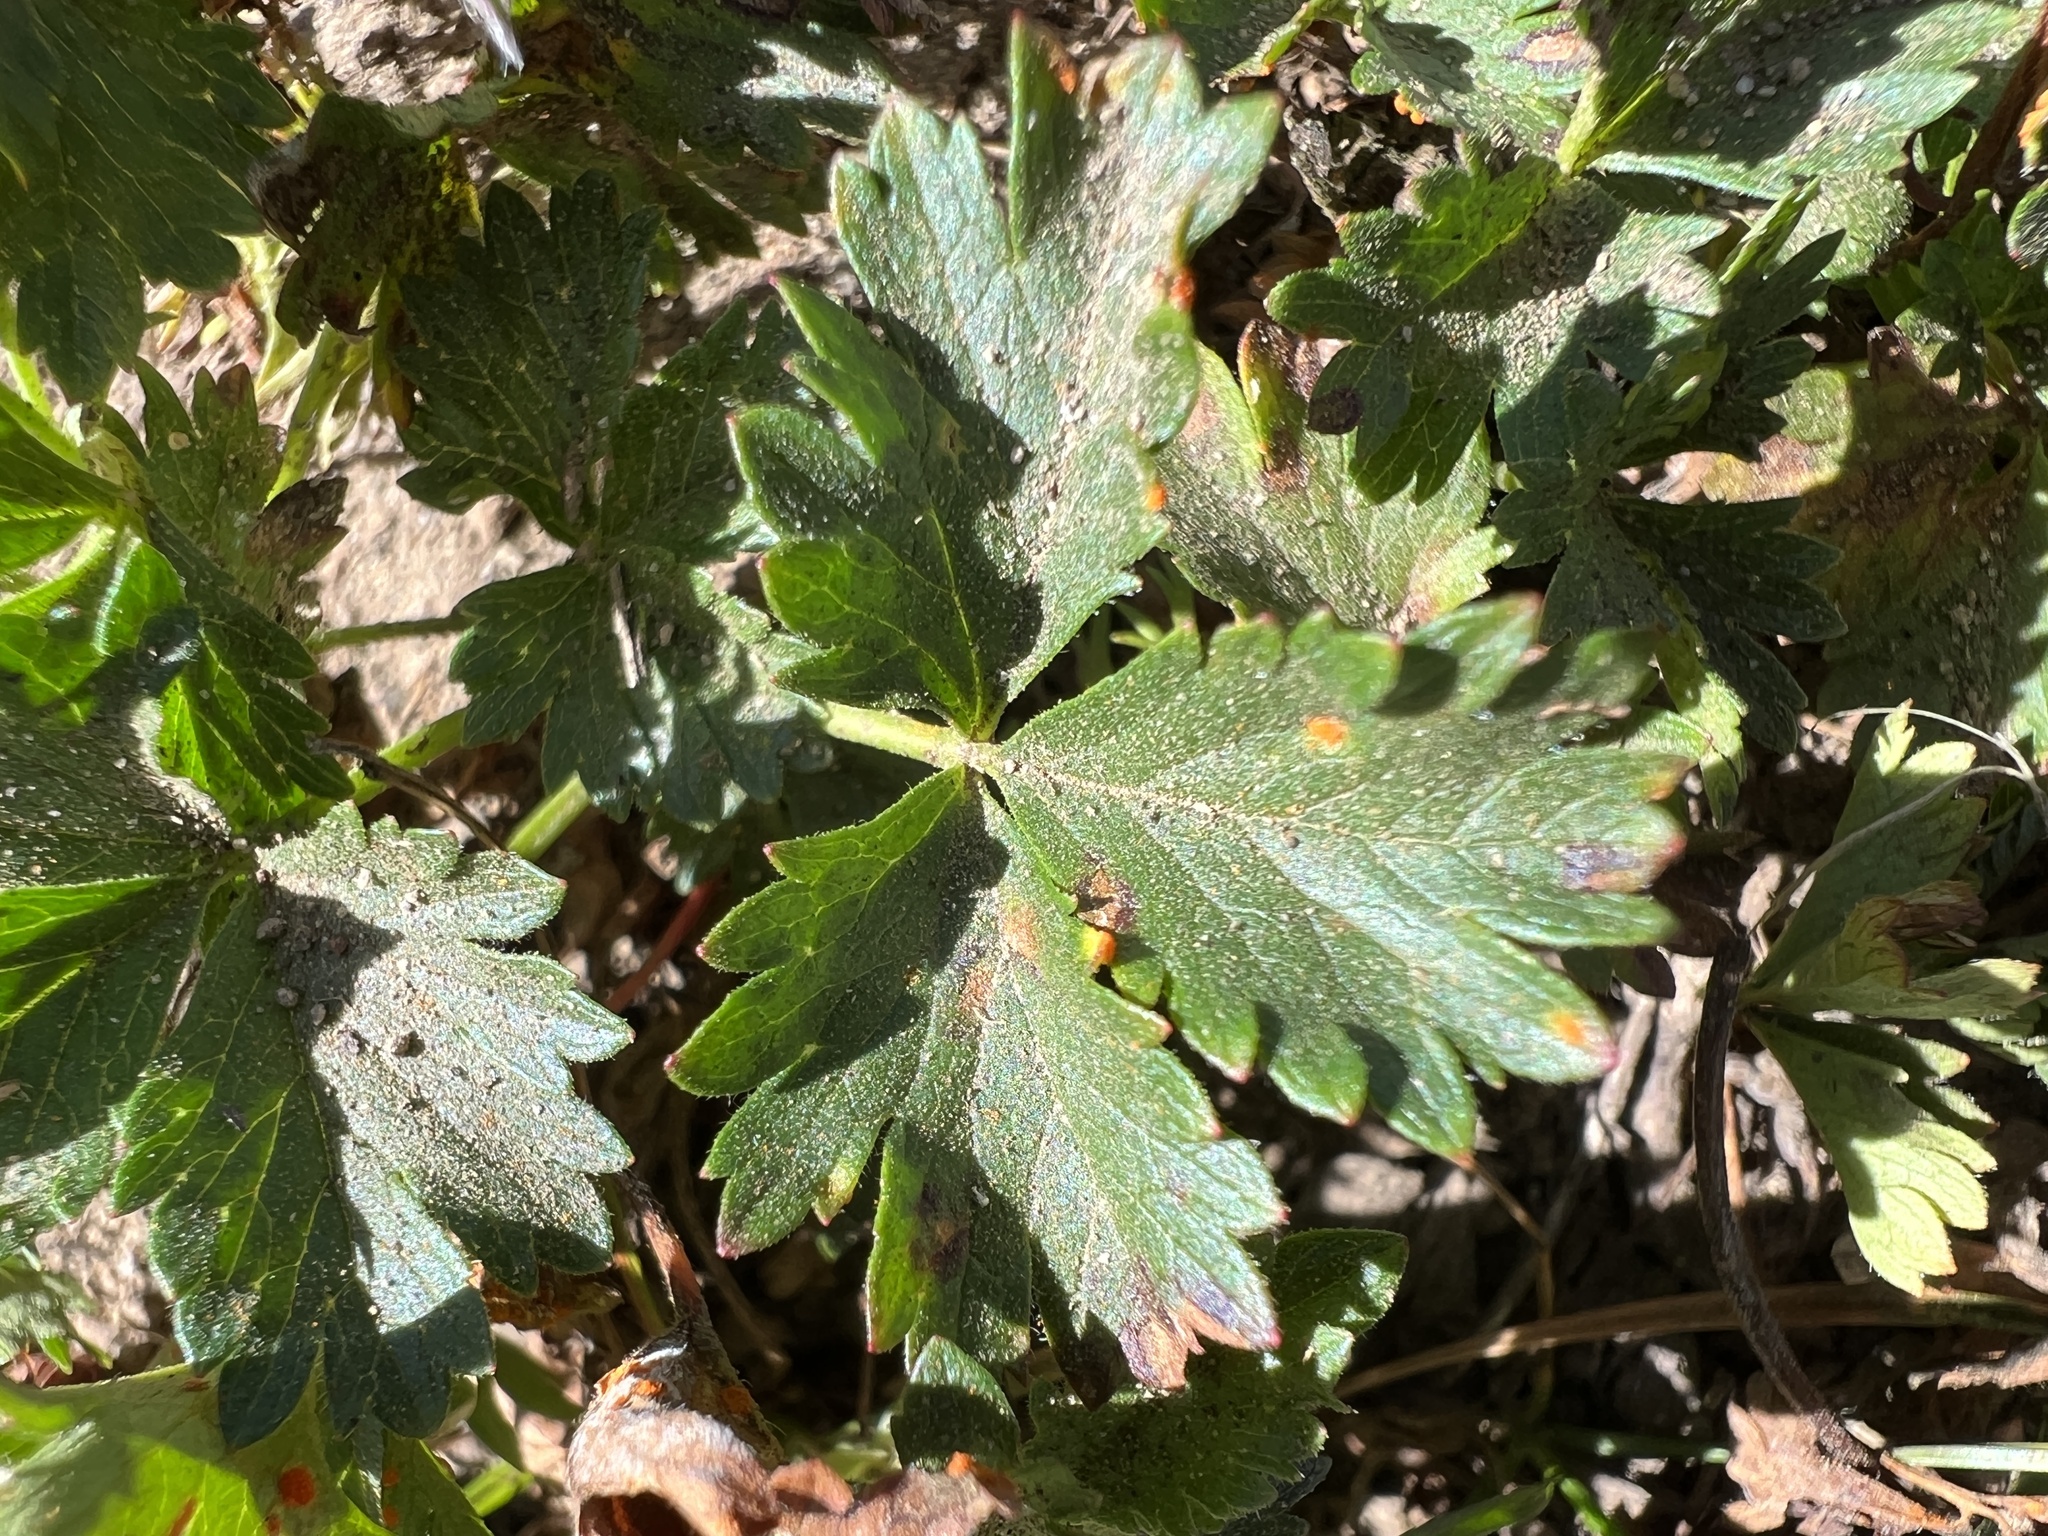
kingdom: Plantae
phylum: Tracheophyta
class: Magnoliopsida
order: Rosales
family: Rosaceae
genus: Potentilla
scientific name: Potentilla flabellifolia
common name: Mount rainier cinquefoil
